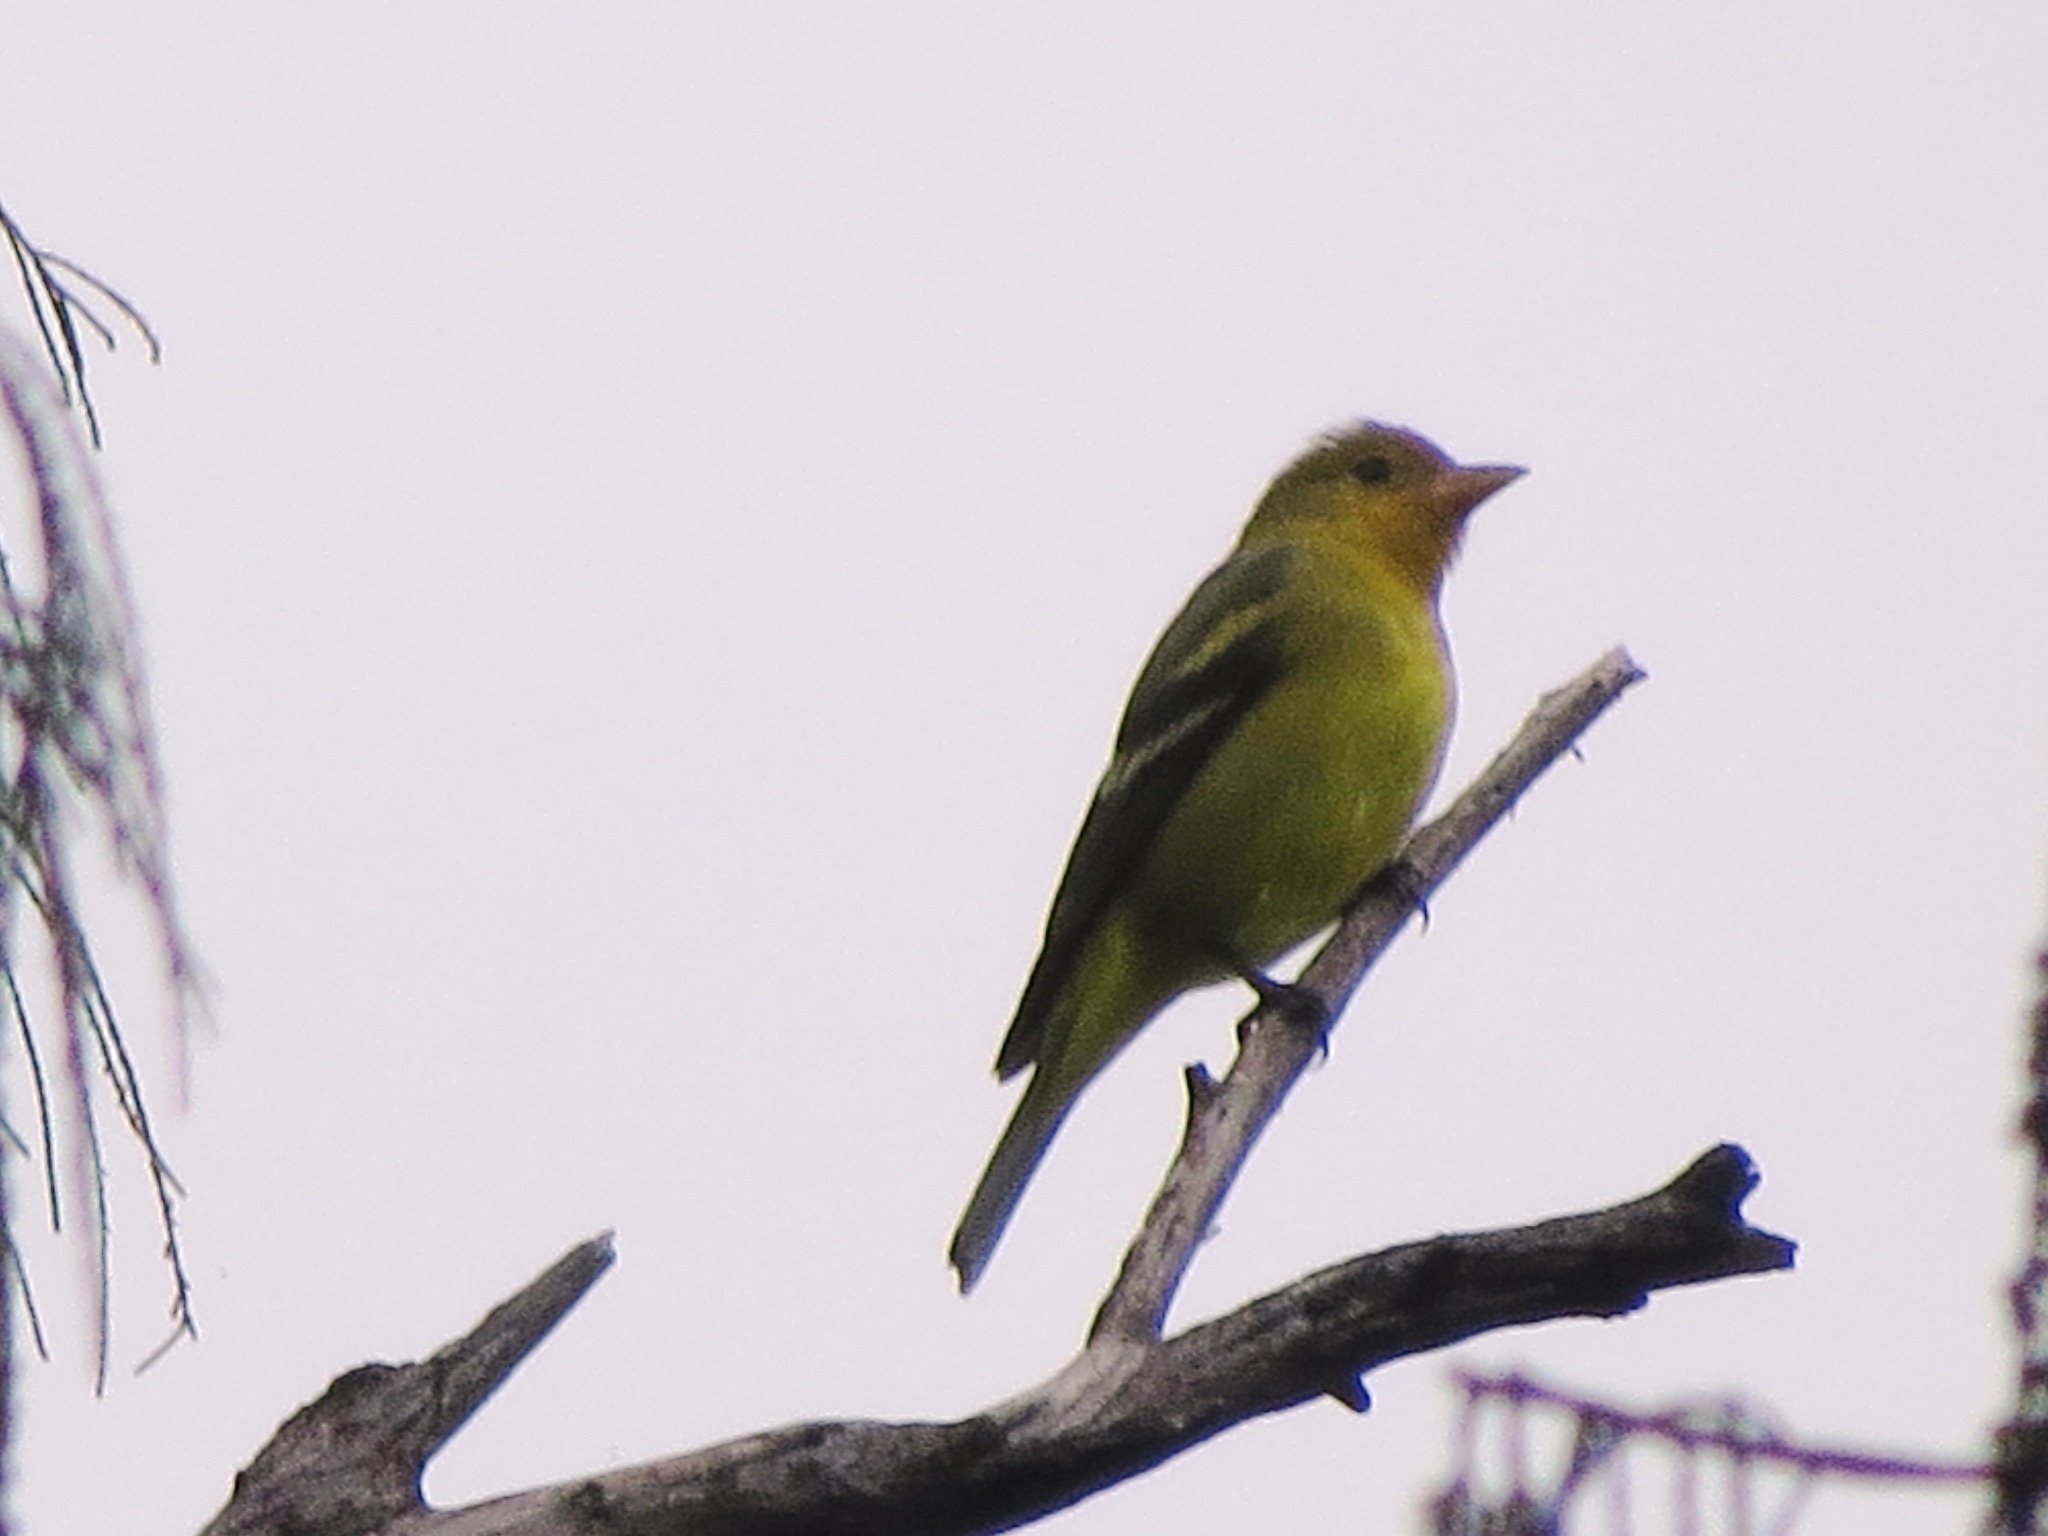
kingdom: Animalia
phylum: Chordata
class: Aves
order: Passeriformes
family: Cardinalidae
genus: Piranga
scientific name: Piranga ludoviciana
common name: Western tanager
